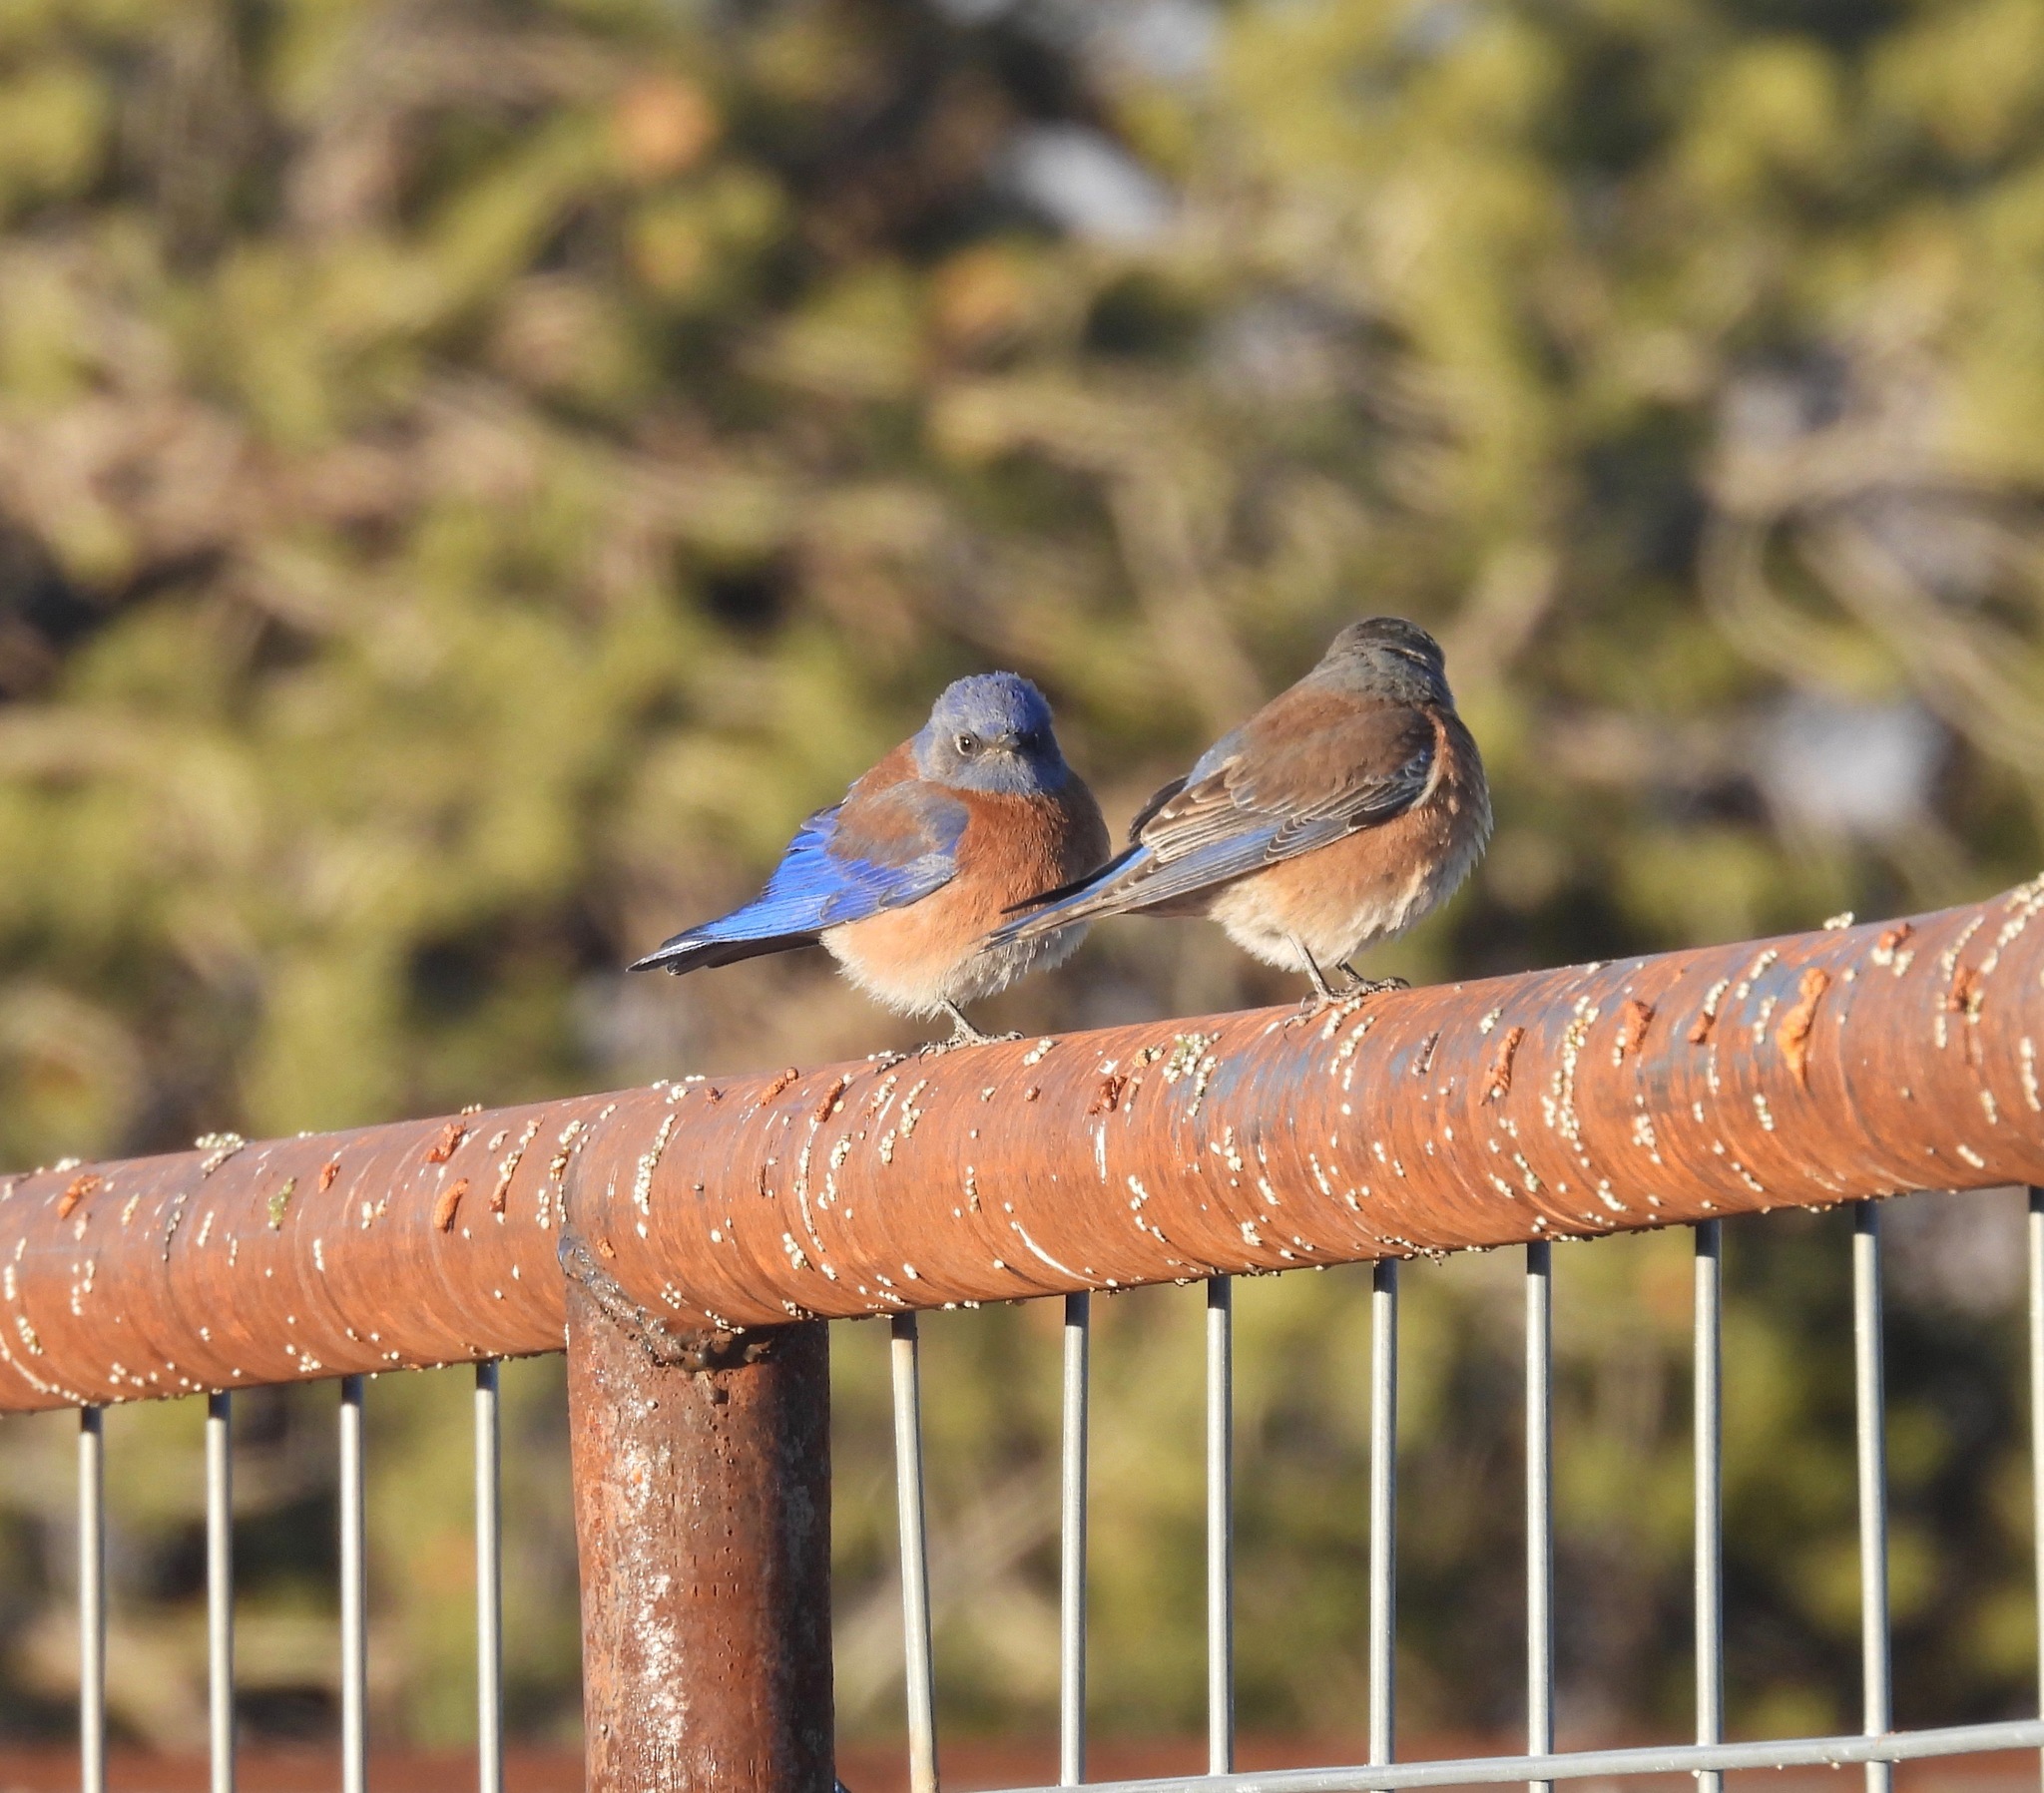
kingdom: Animalia
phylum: Chordata
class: Aves
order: Passeriformes
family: Turdidae
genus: Sialia
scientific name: Sialia mexicana
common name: Western bluebird
